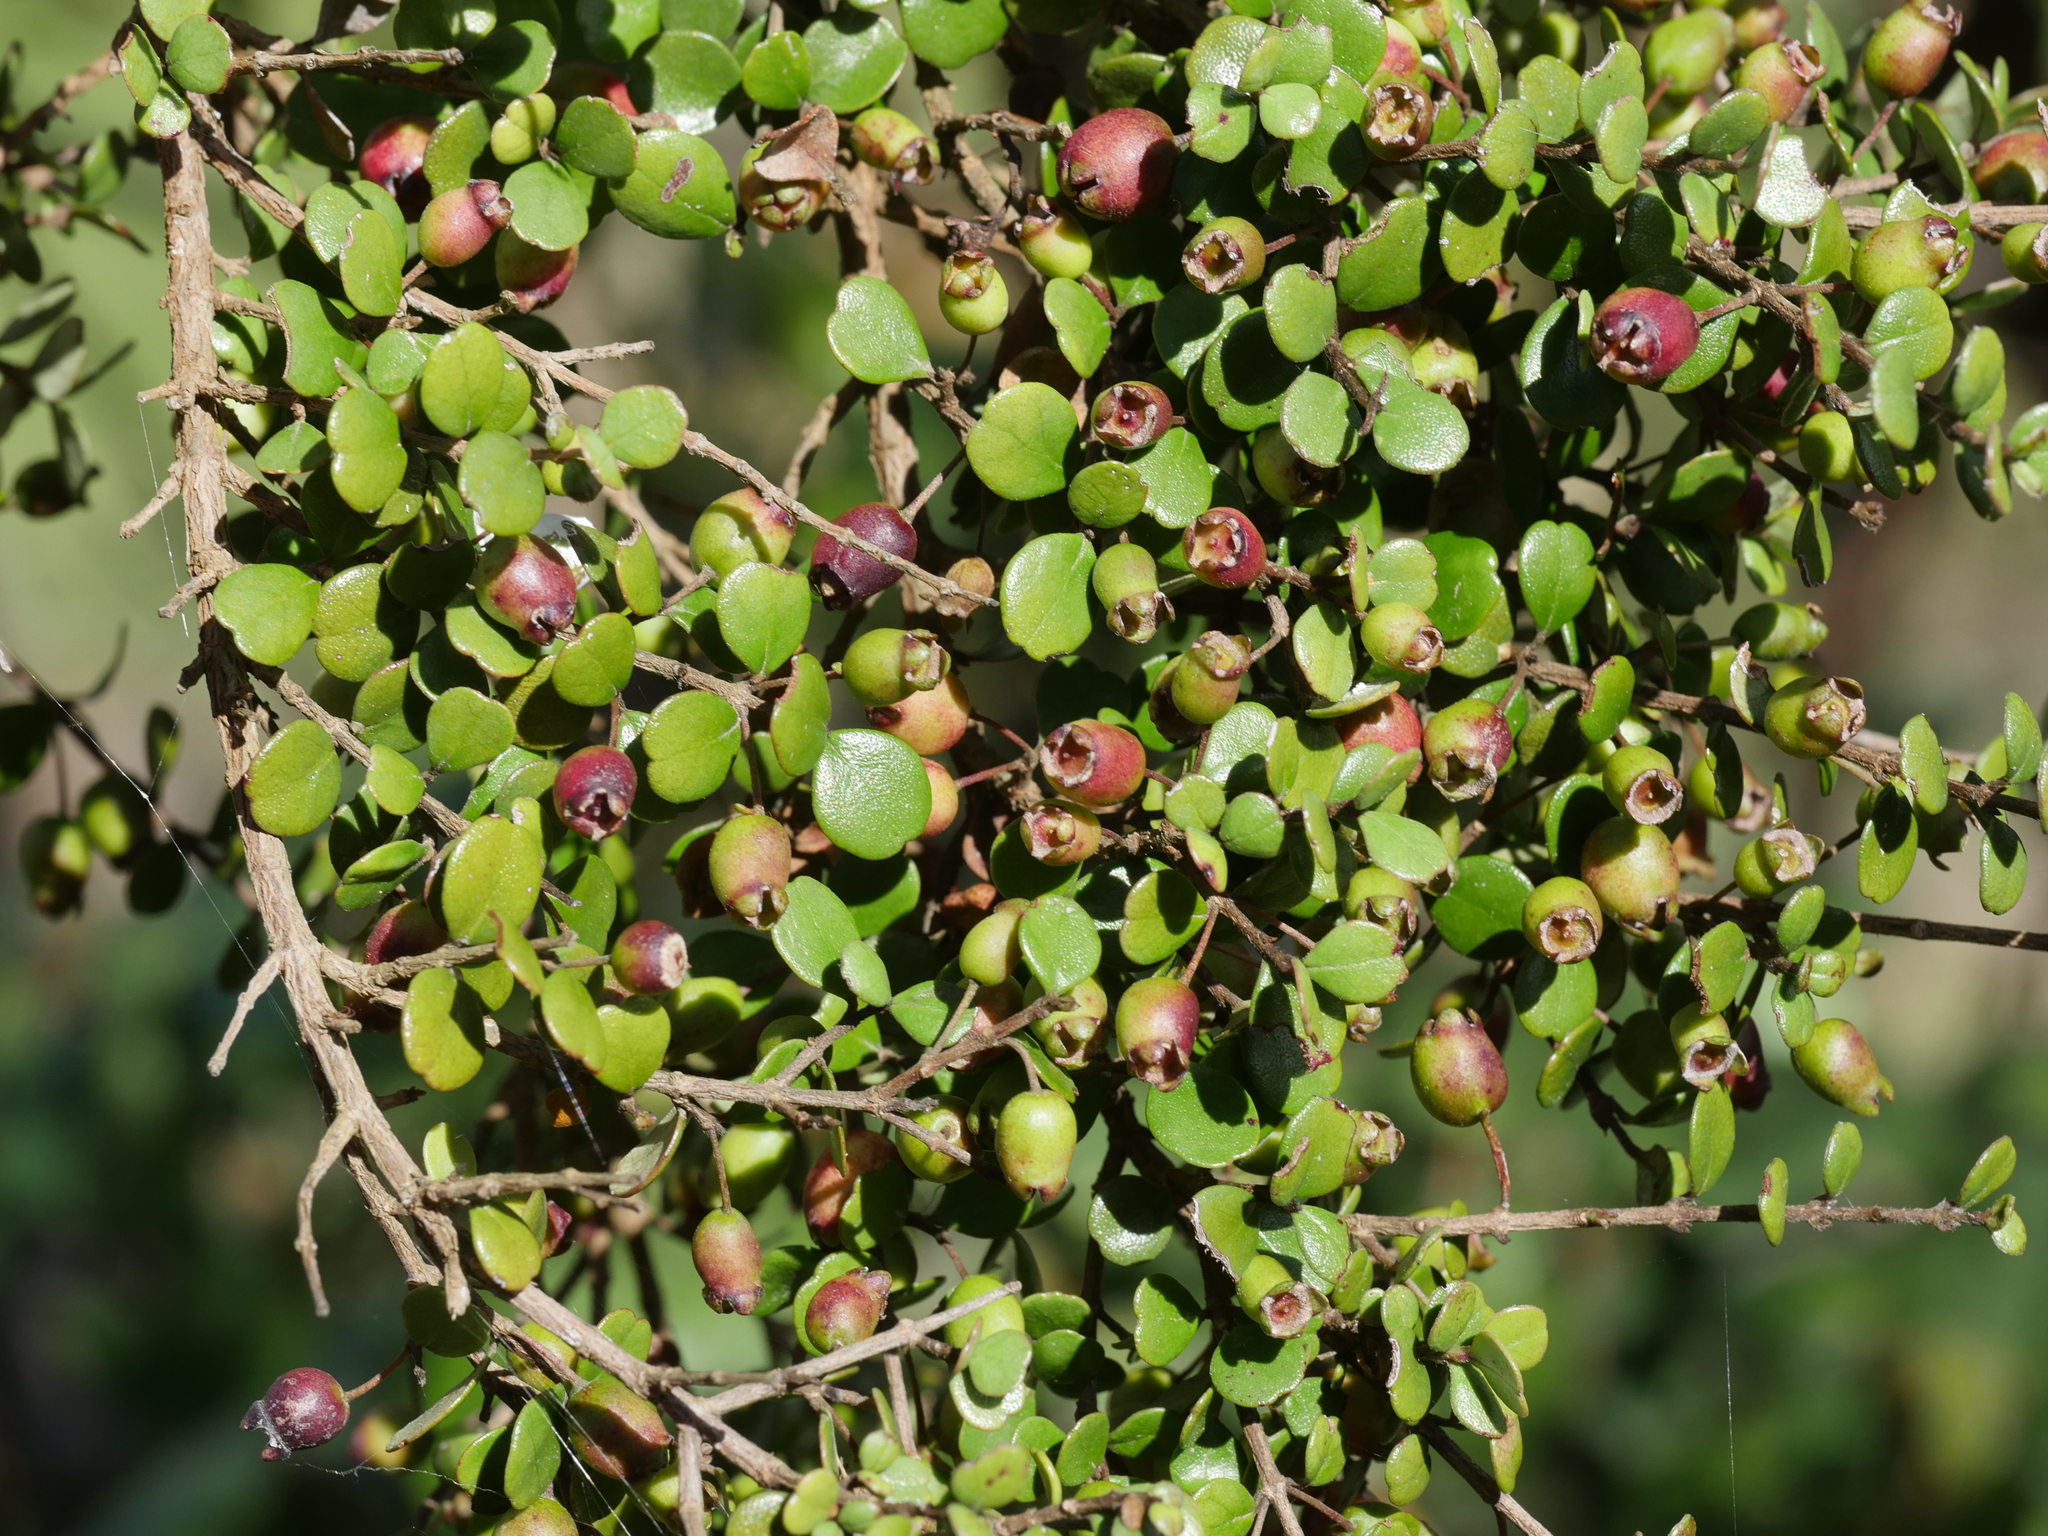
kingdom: Plantae
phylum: Tracheophyta
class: Magnoliopsida
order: Myrtales
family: Myrtaceae
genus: Lophomyrtus
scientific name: Lophomyrtus obcordata
